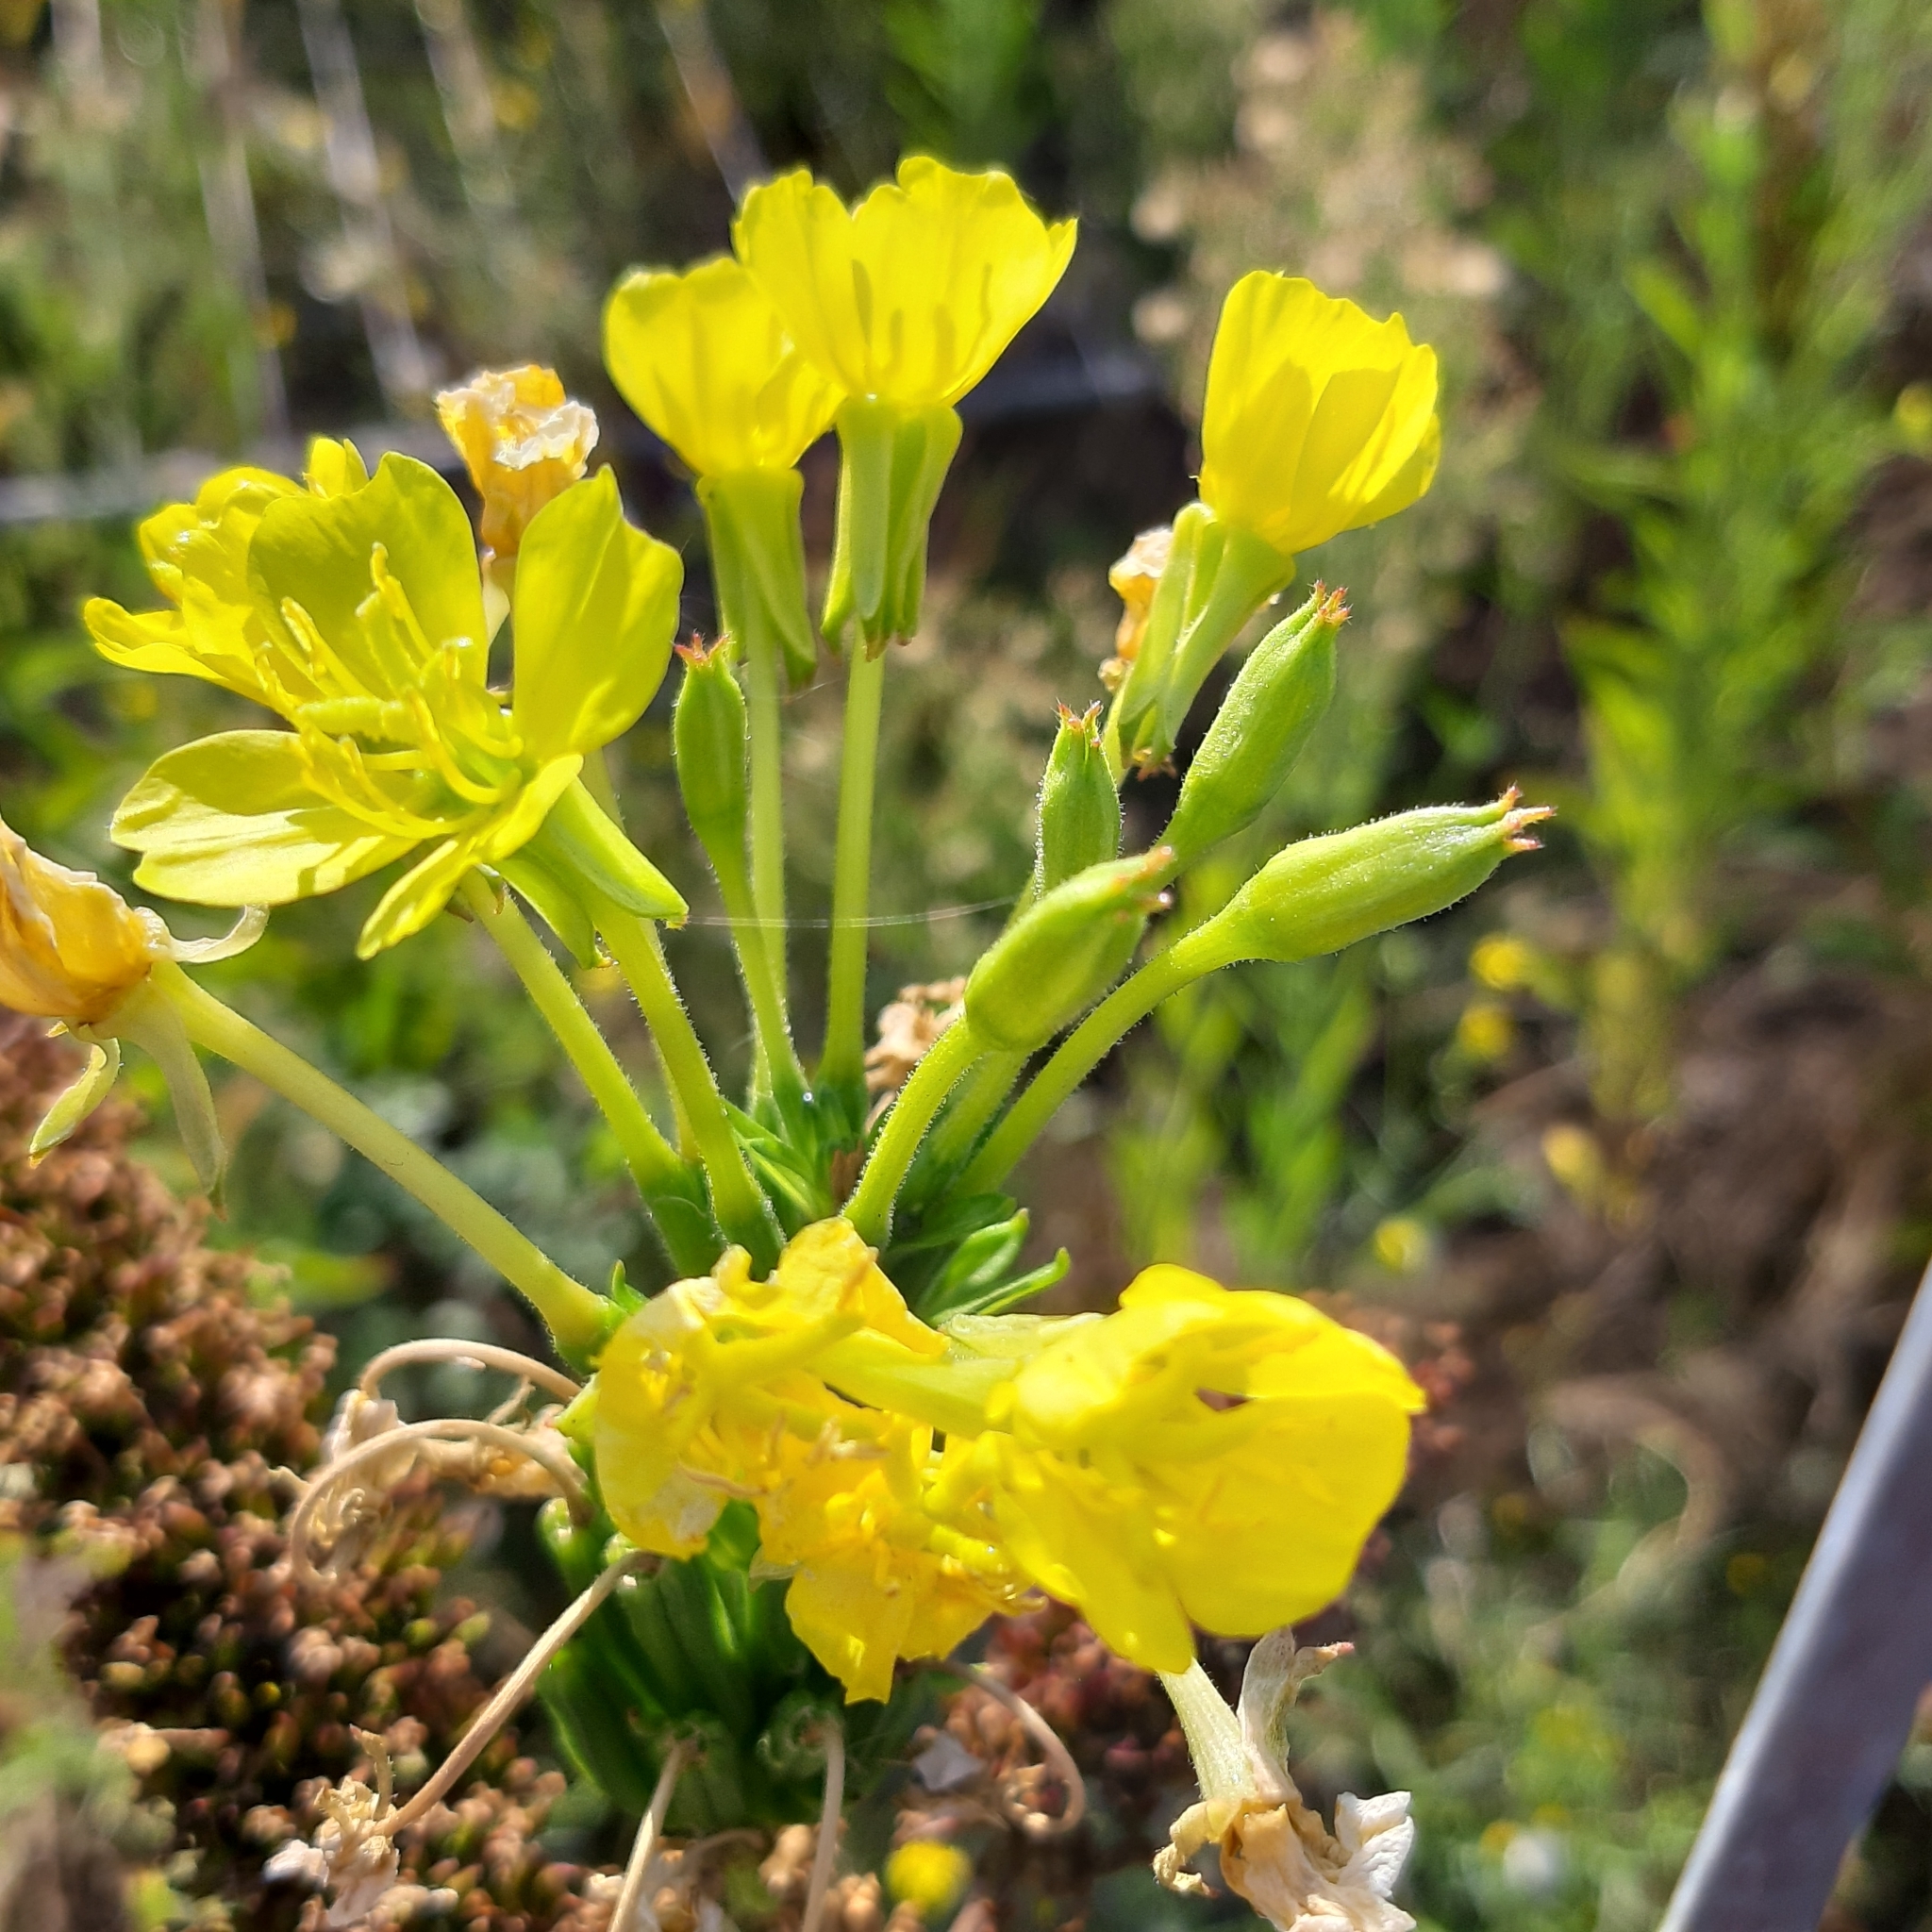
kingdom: Plantae
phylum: Tracheophyta
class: Magnoliopsida
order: Myrtales
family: Onagraceae
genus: Oenothera
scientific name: Oenothera parviflora
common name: Least evening-primrose
